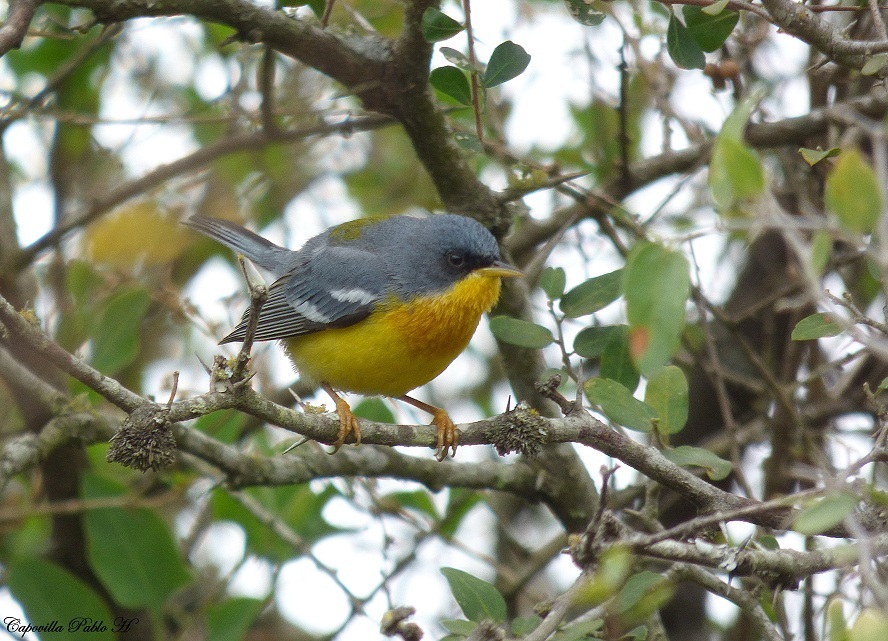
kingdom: Animalia
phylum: Chordata
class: Aves
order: Passeriformes
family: Parulidae
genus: Setophaga
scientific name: Setophaga pitiayumi
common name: Tropical parula
